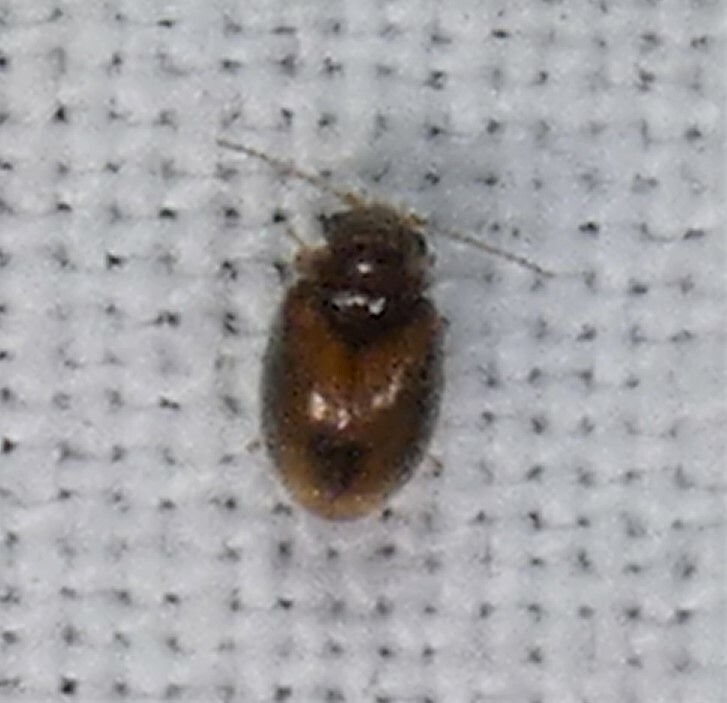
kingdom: Animalia
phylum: Arthropoda
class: Insecta
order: Coleoptera
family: Scirtidae
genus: Contacyphon
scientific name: Contacyphon
